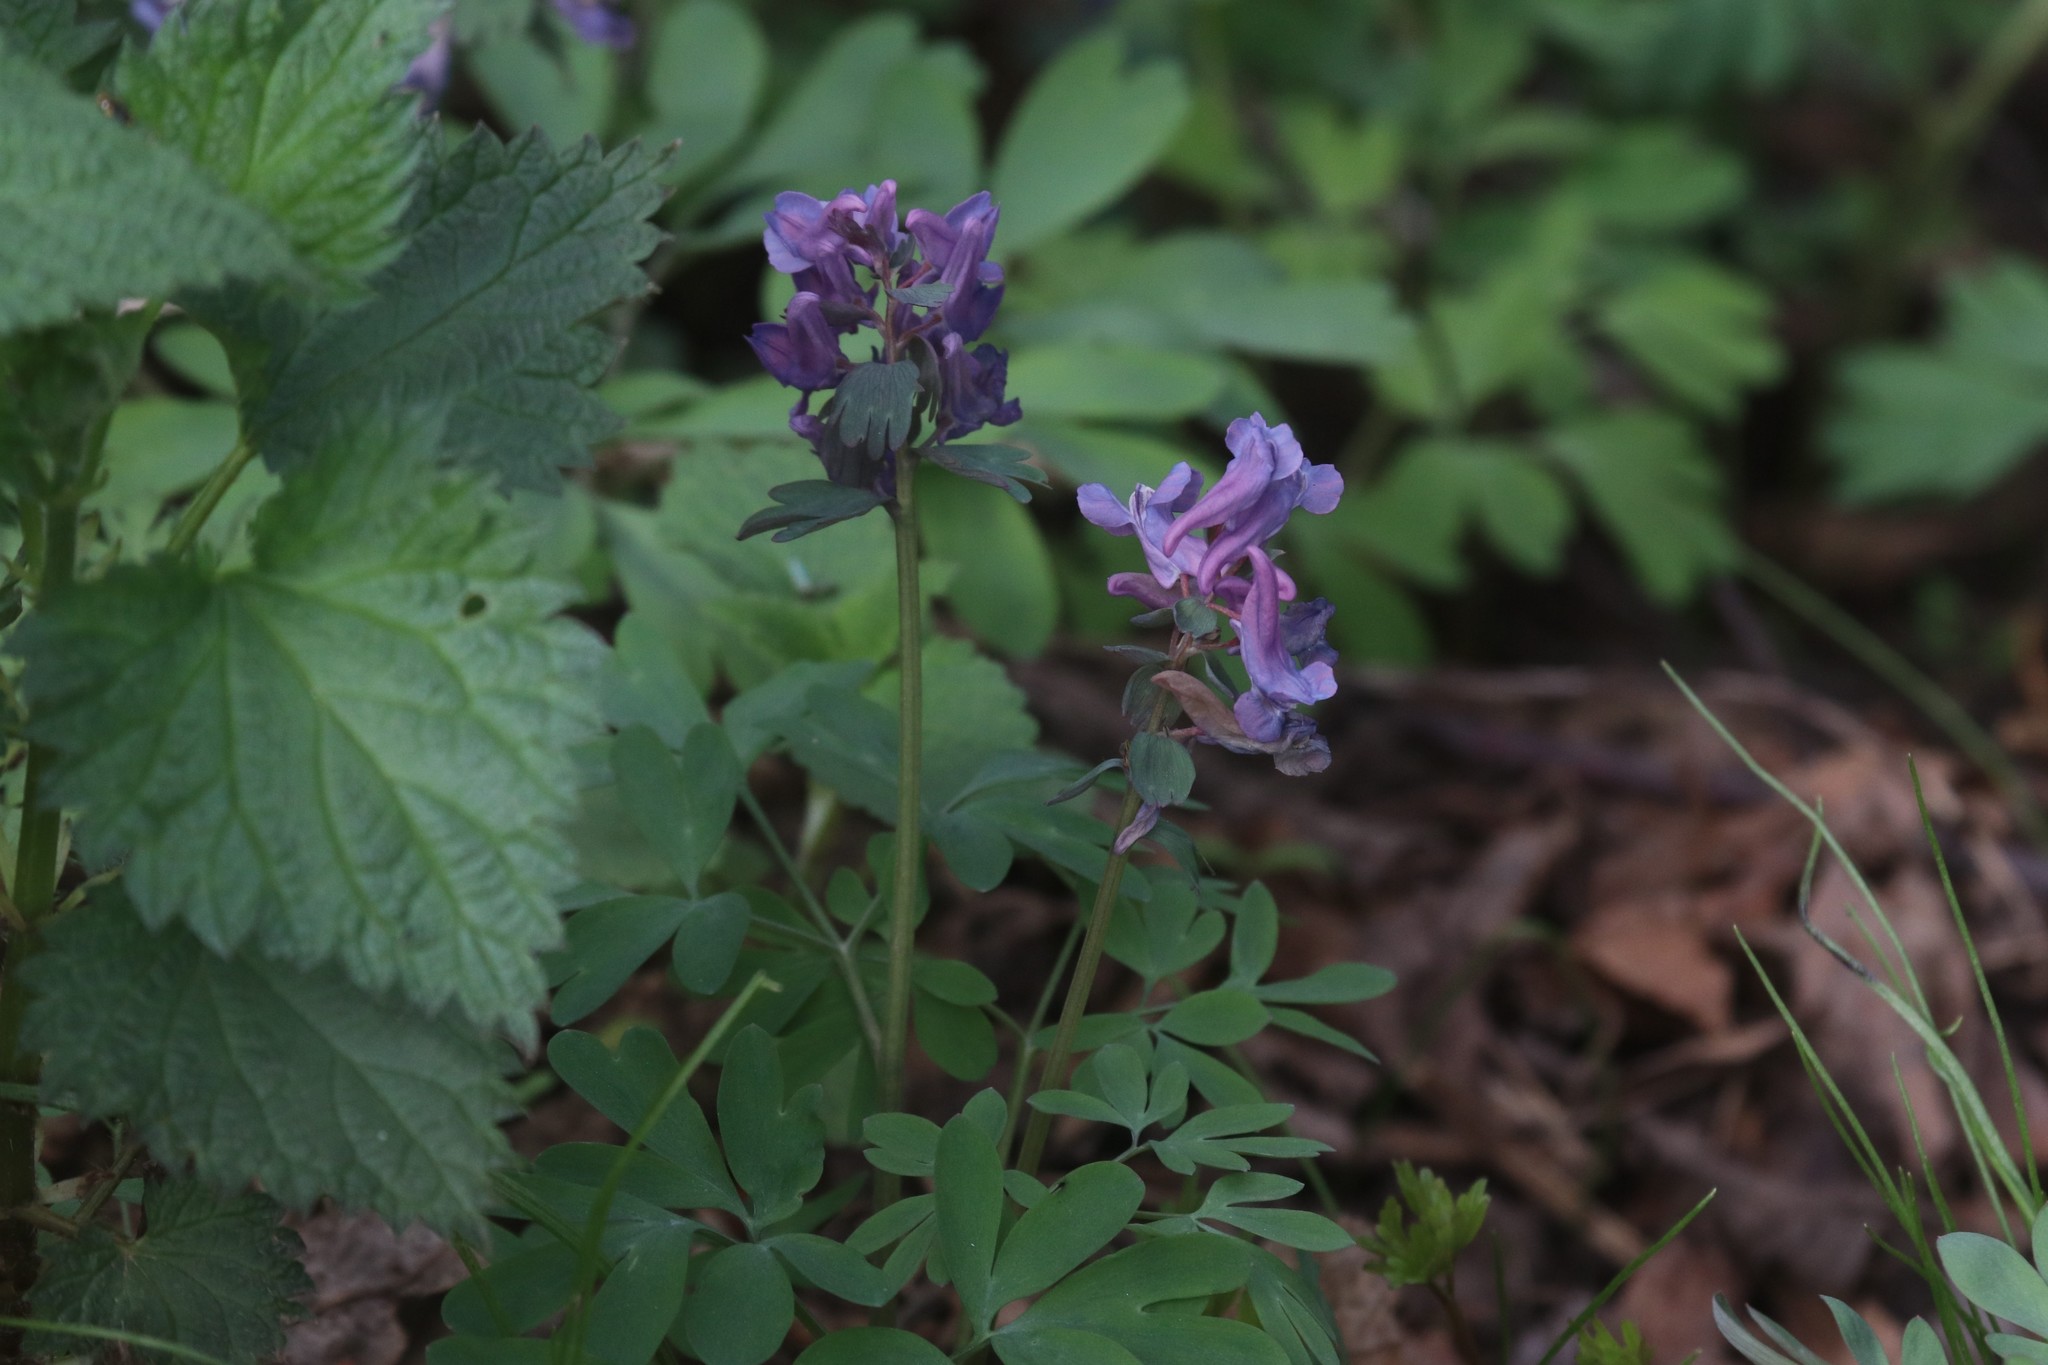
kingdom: Plantae
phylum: Tracheophyta
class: Magnoliopsida
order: Ranunculales
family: Papaveraceae
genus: Corydalis
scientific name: Corydalis solida
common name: Bird-in-a-bush
